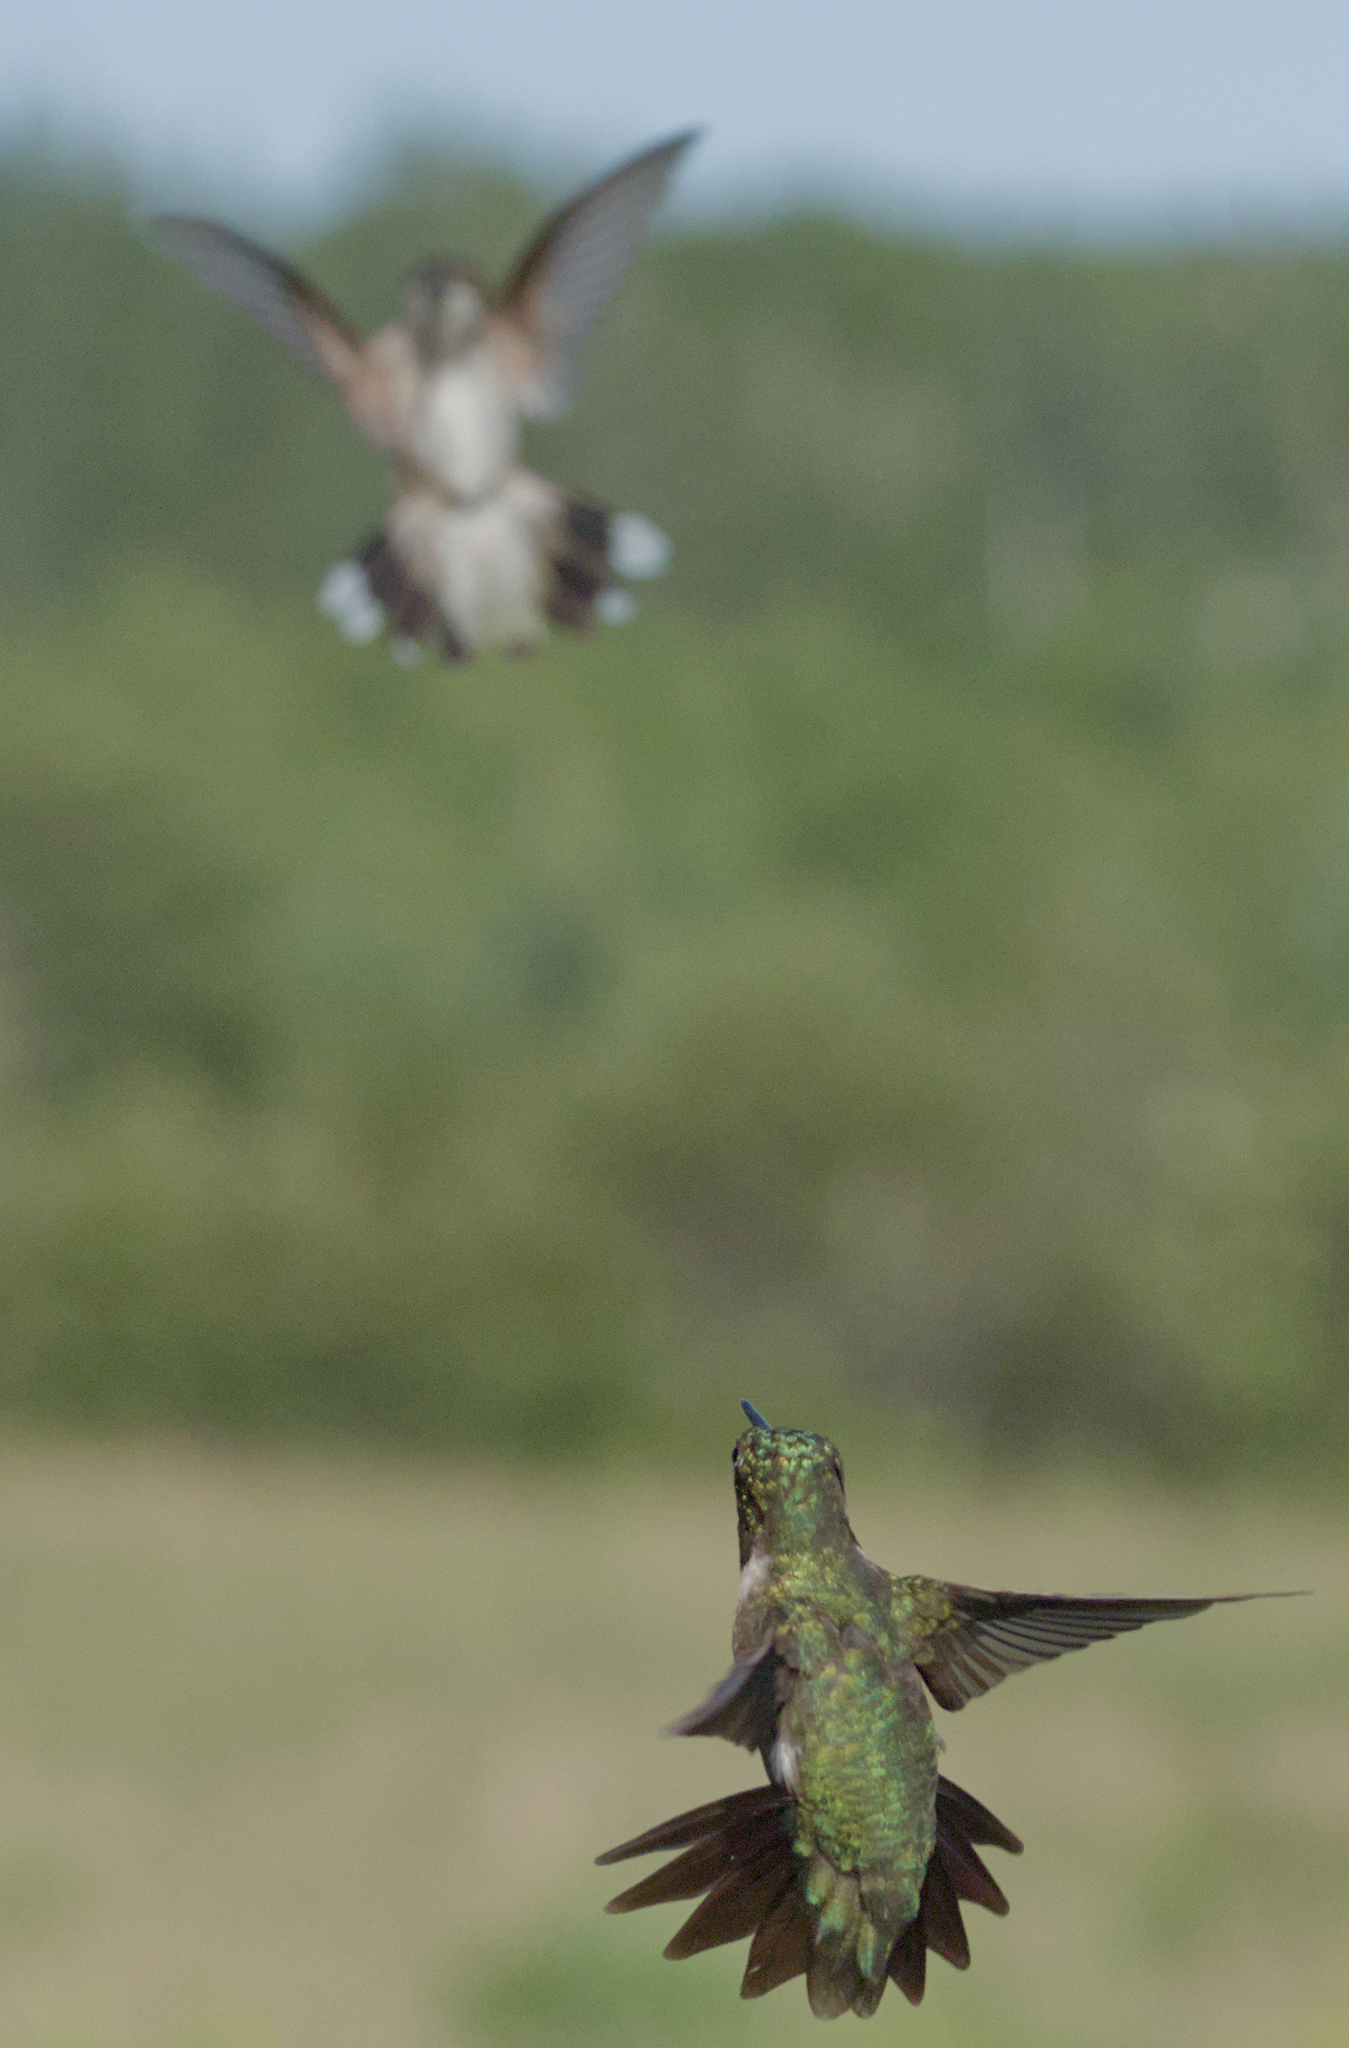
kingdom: Animalia
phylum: Chordata
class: Aves
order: Apodiformes
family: Trochilidae
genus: Archilochus
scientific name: Archilochus colubris
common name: Ruby-throated hummingbird
